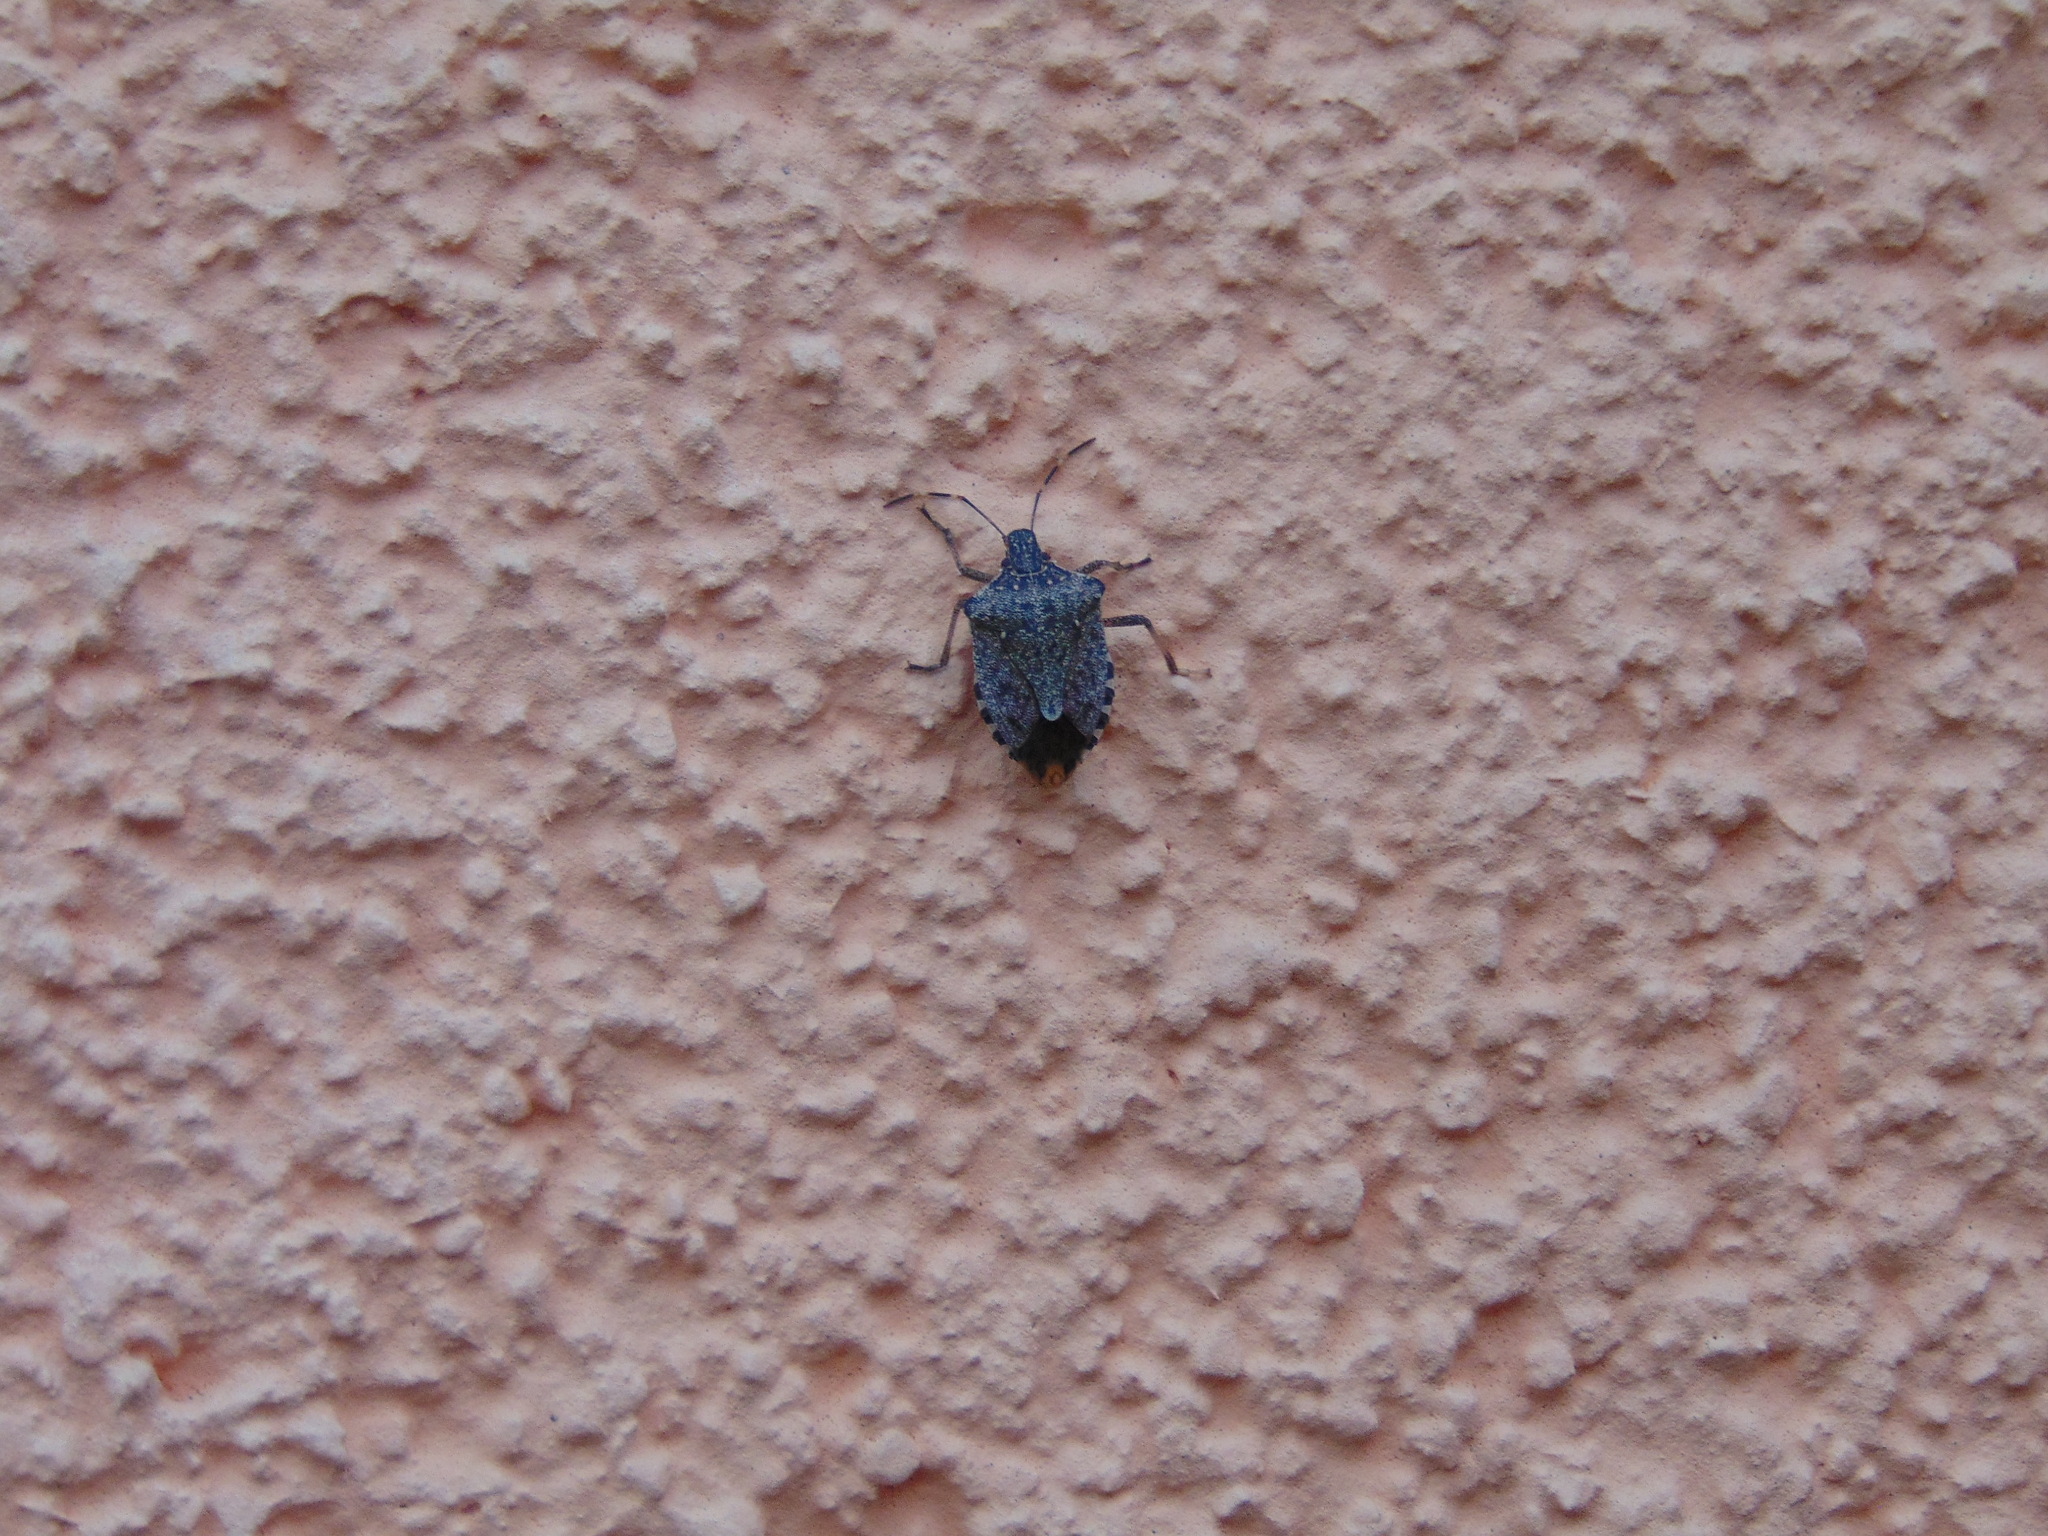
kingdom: Animalia
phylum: Arthropoda
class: Insecta
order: Hemiptera
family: Pentatomidae
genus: Halyomorpha
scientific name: Halyomorpha halys
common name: Brown marmorated stink bug
